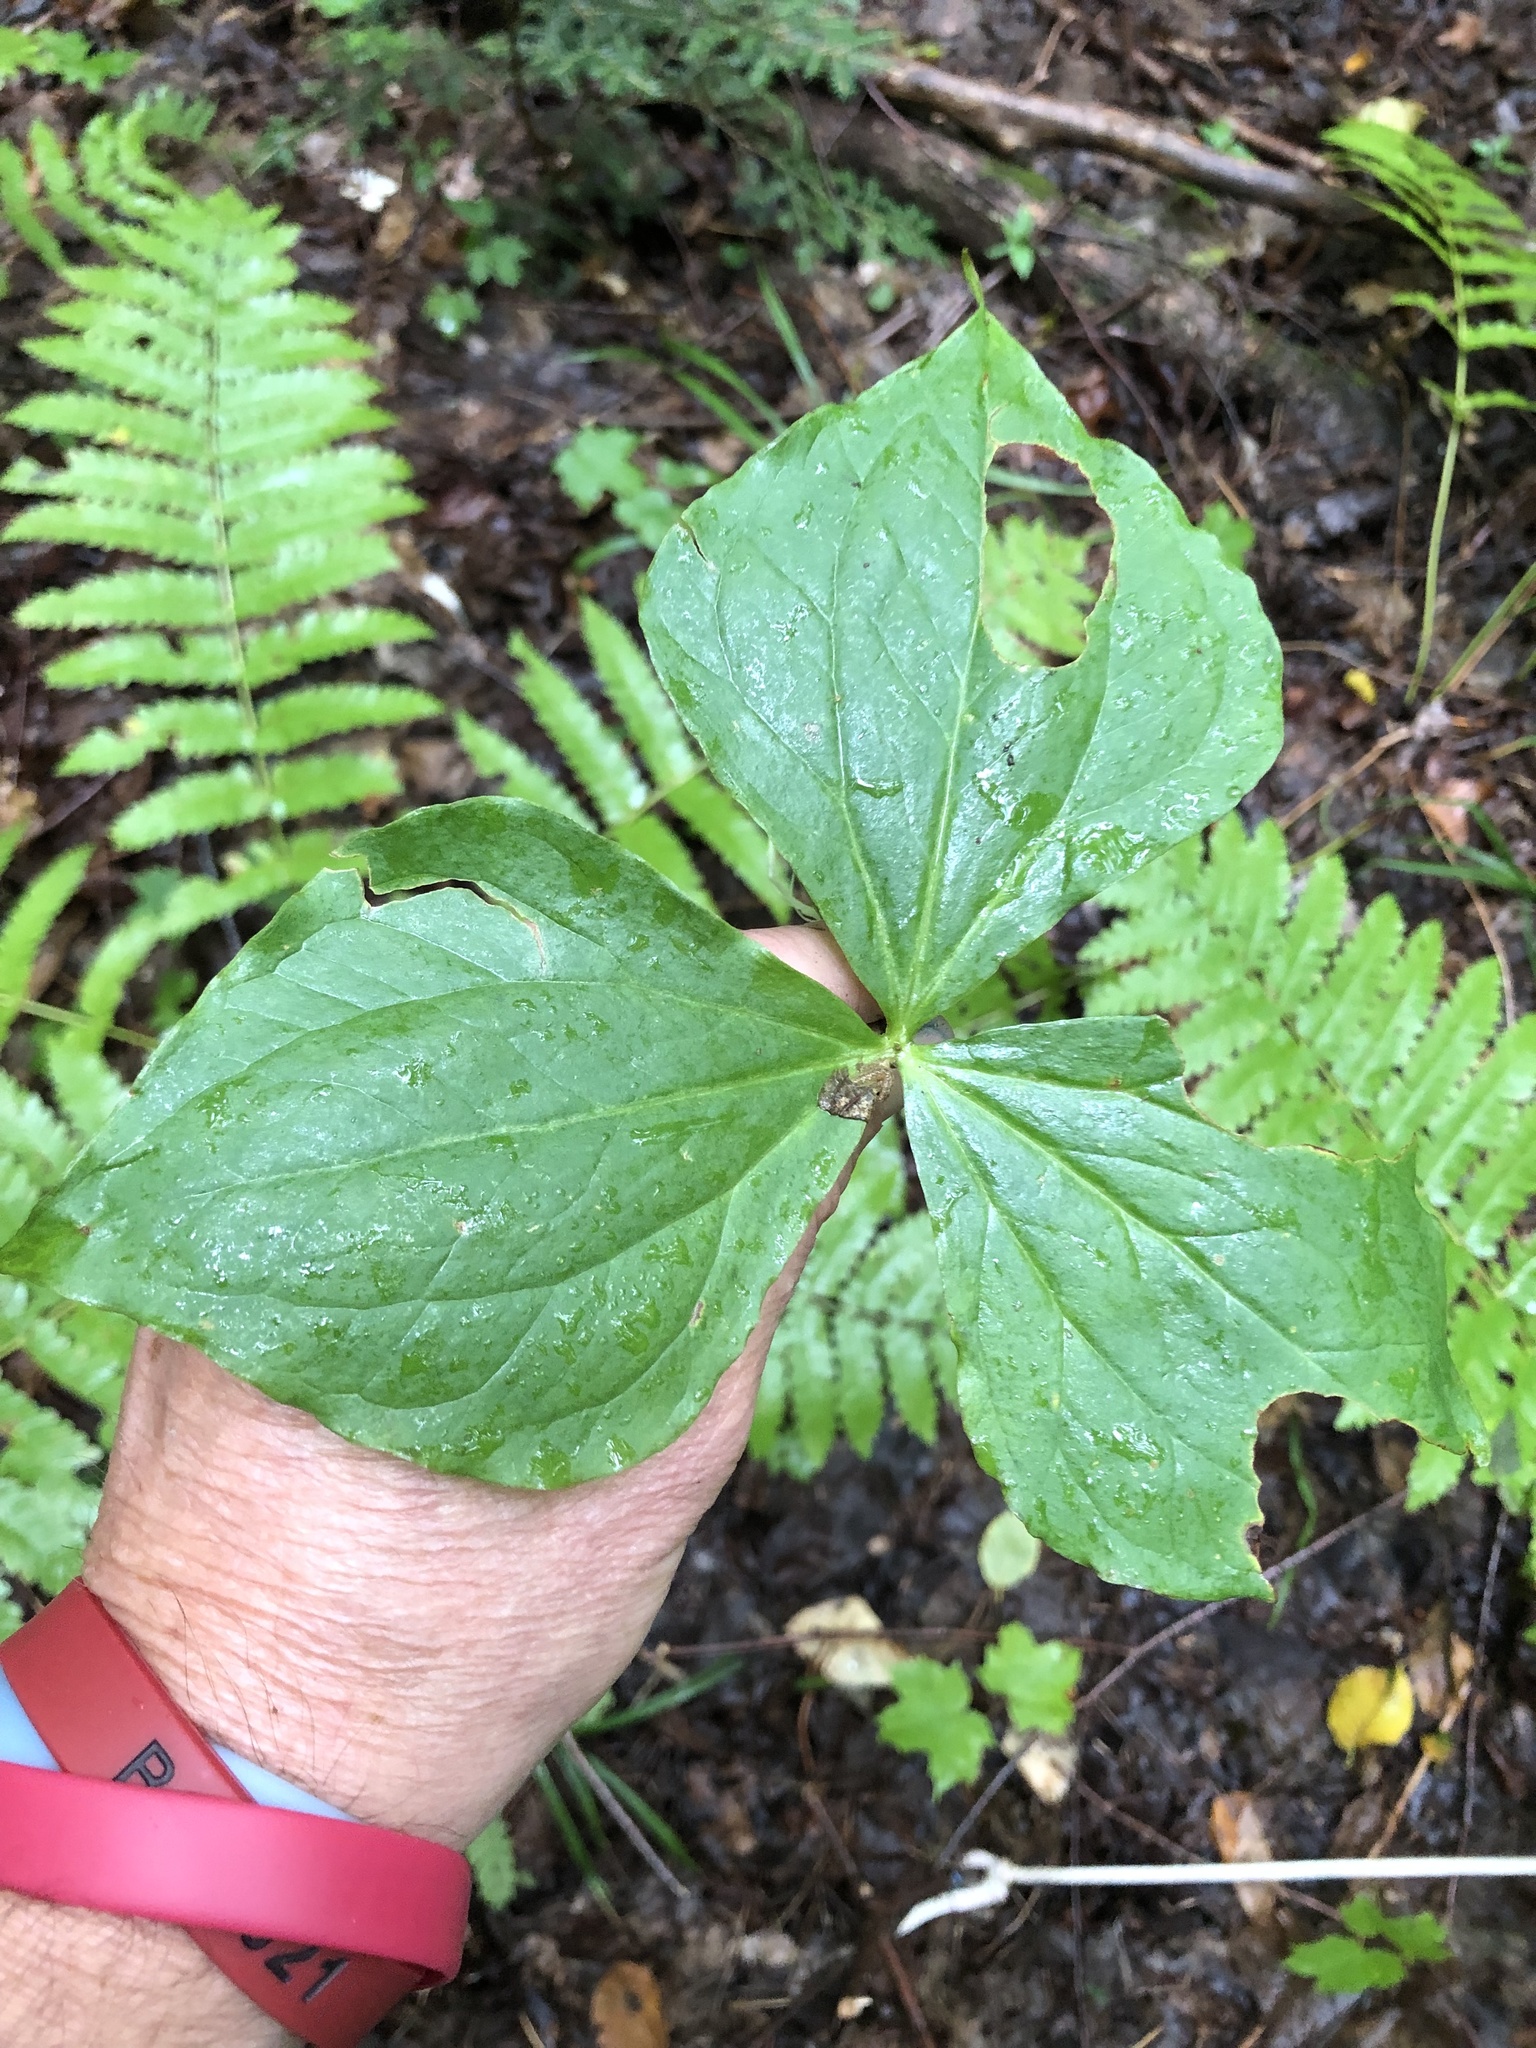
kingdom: Plantae
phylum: Tracheophyta
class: Liliopsida
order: Liliales
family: Melanthiaceae
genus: Trillium
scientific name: Trillium erectum
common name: Purple trillium
